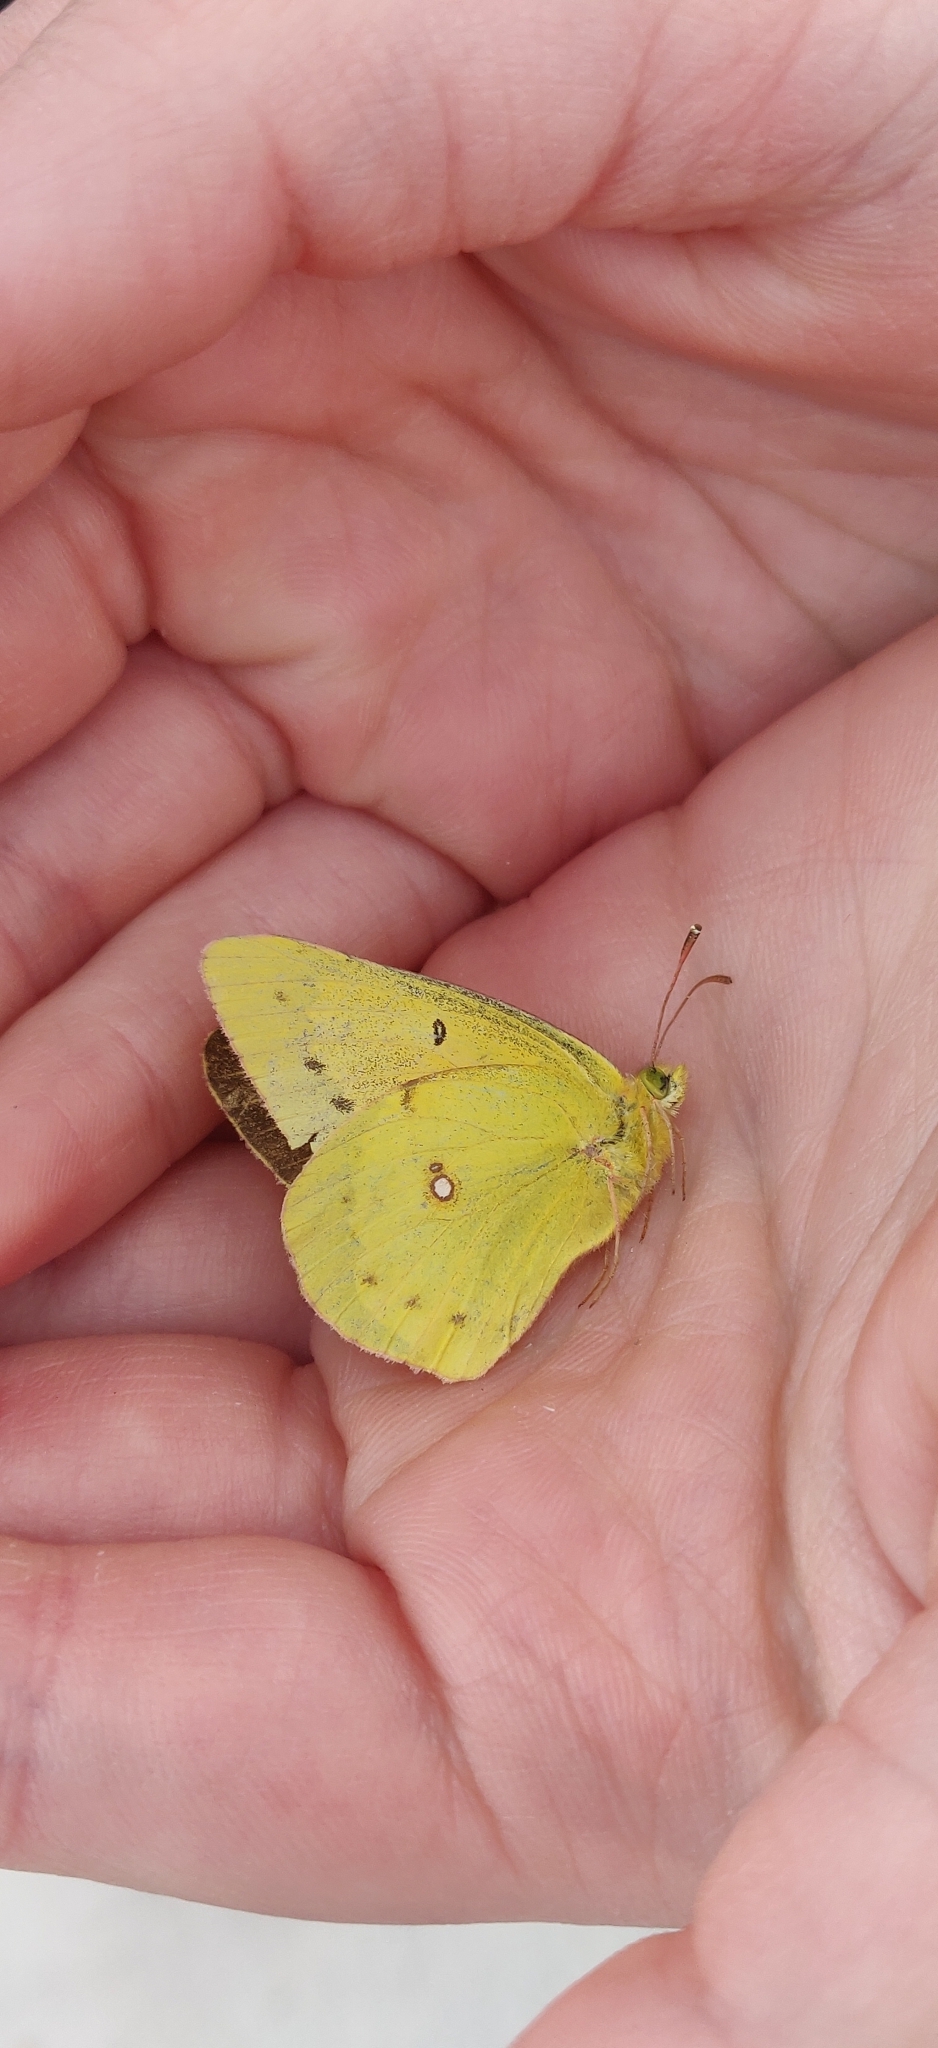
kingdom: Animalia
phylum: Arthropoda
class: Insecta
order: Lepidoptera
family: Pieridae
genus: Colias
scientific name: Colias eurytheme
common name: Alfalfa butterfly
